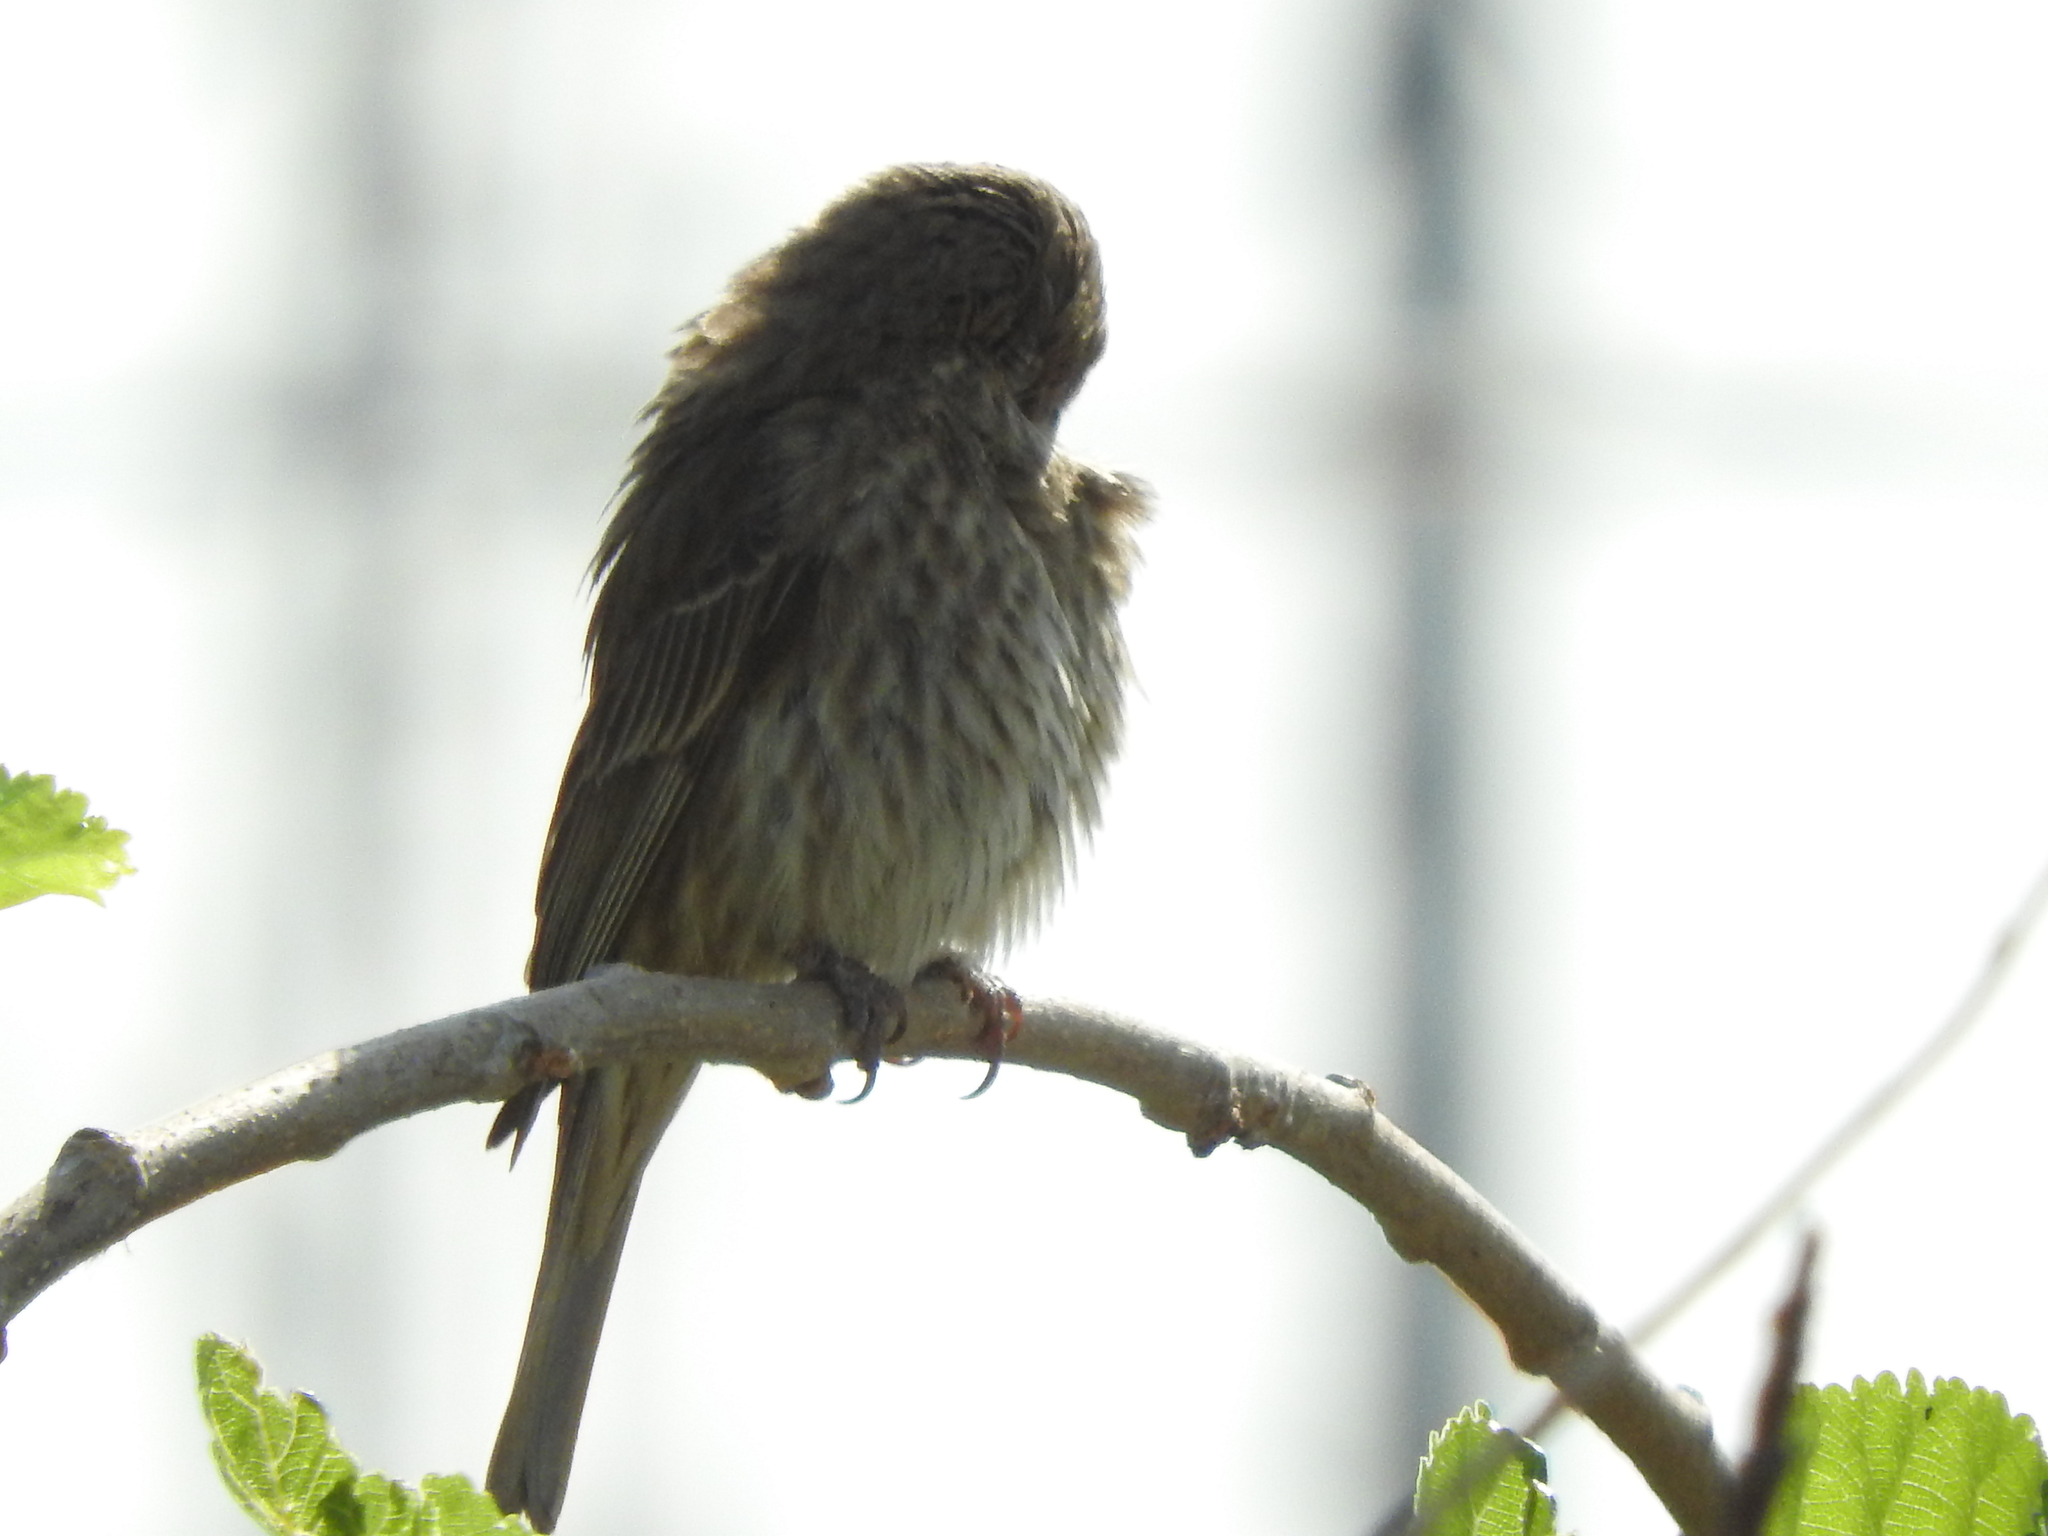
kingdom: Animalia
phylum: Chordata
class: Aves
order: Passeriformes
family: Fringillidae
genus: Haemorhous
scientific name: Haemorhous mexicanus
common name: House finch
